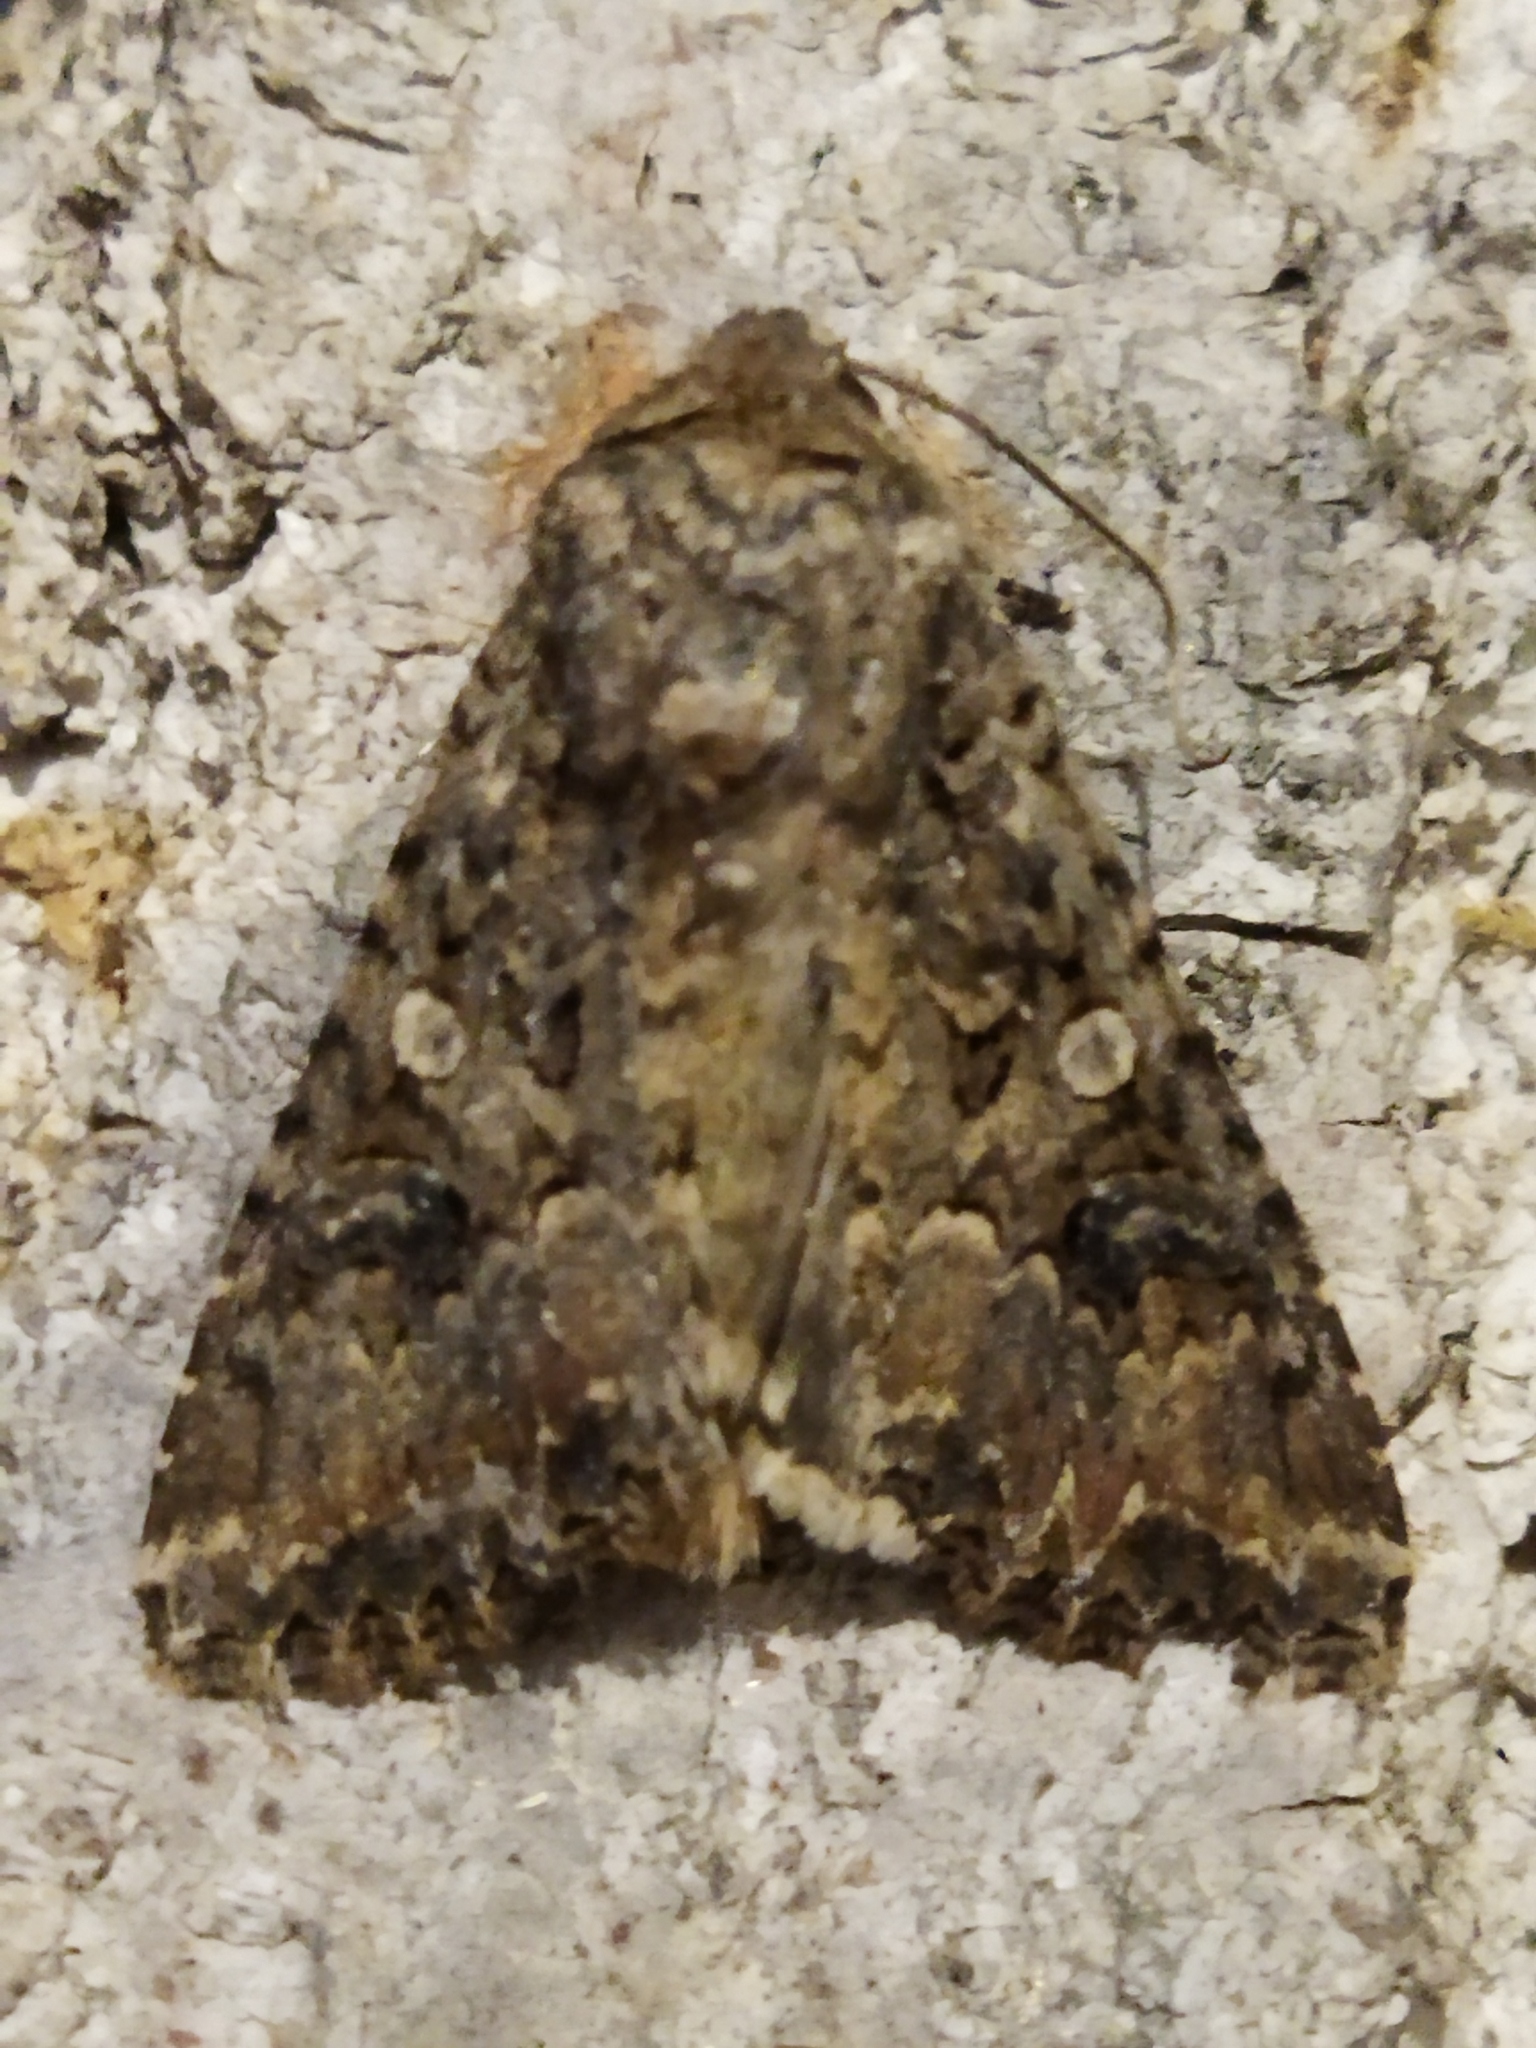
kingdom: Animalia
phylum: Arthropoda
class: Insecta
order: Lepidoptera
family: Noctuidae
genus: Anarta
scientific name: Anarta trifolii
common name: Clover cutworm moth
